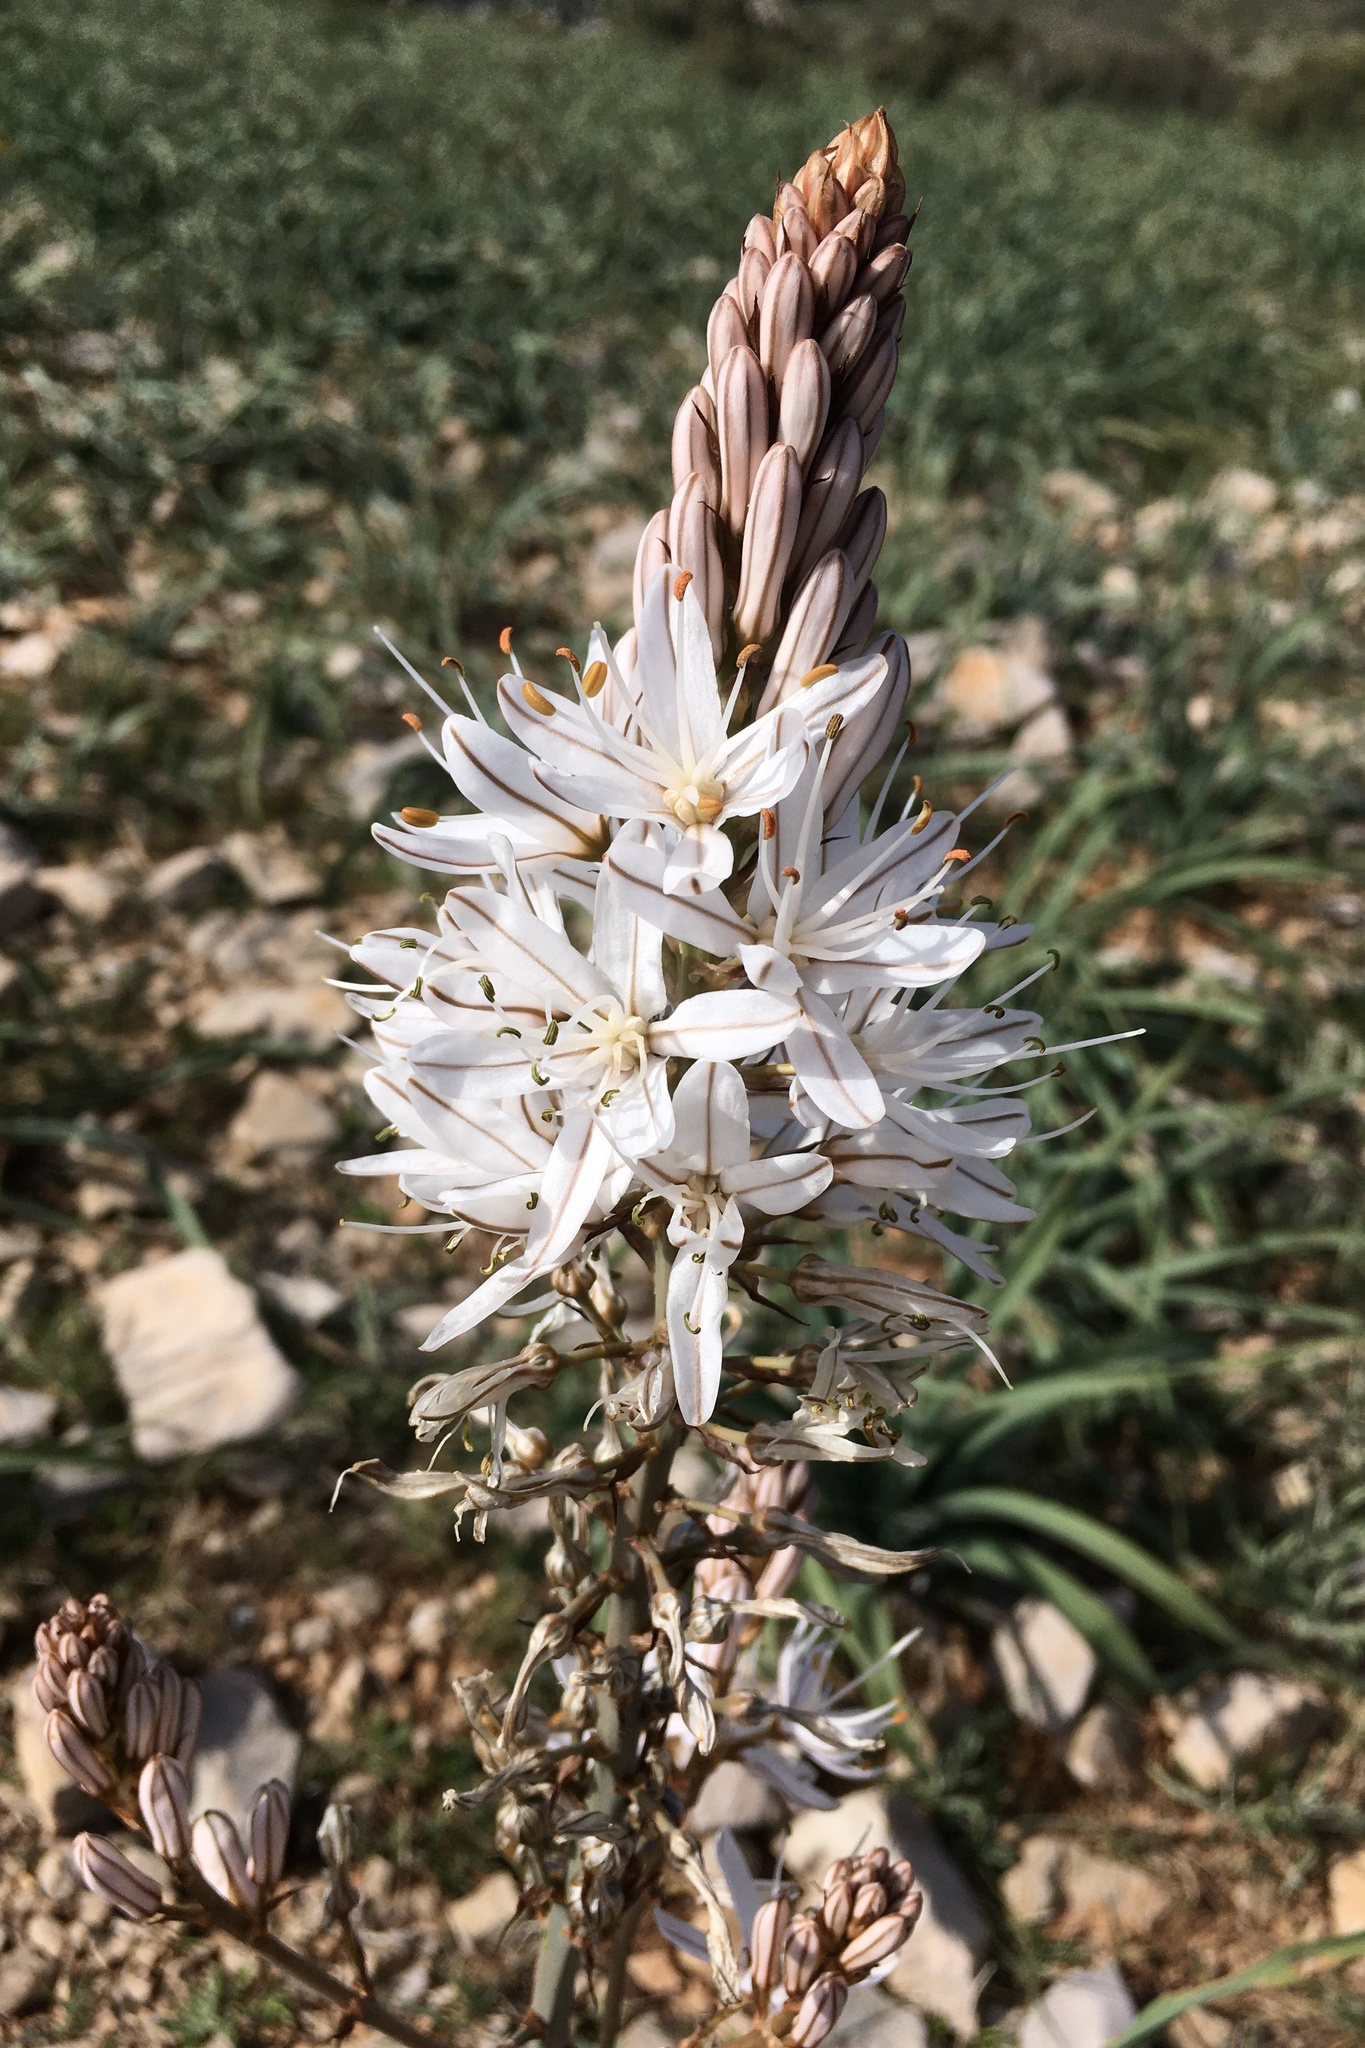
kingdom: Plantae
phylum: Tracheophyta
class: Liliopsida
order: Asparagales
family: Asphodelaceae
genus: Asphodelus
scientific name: Asphodelus cerasifer
